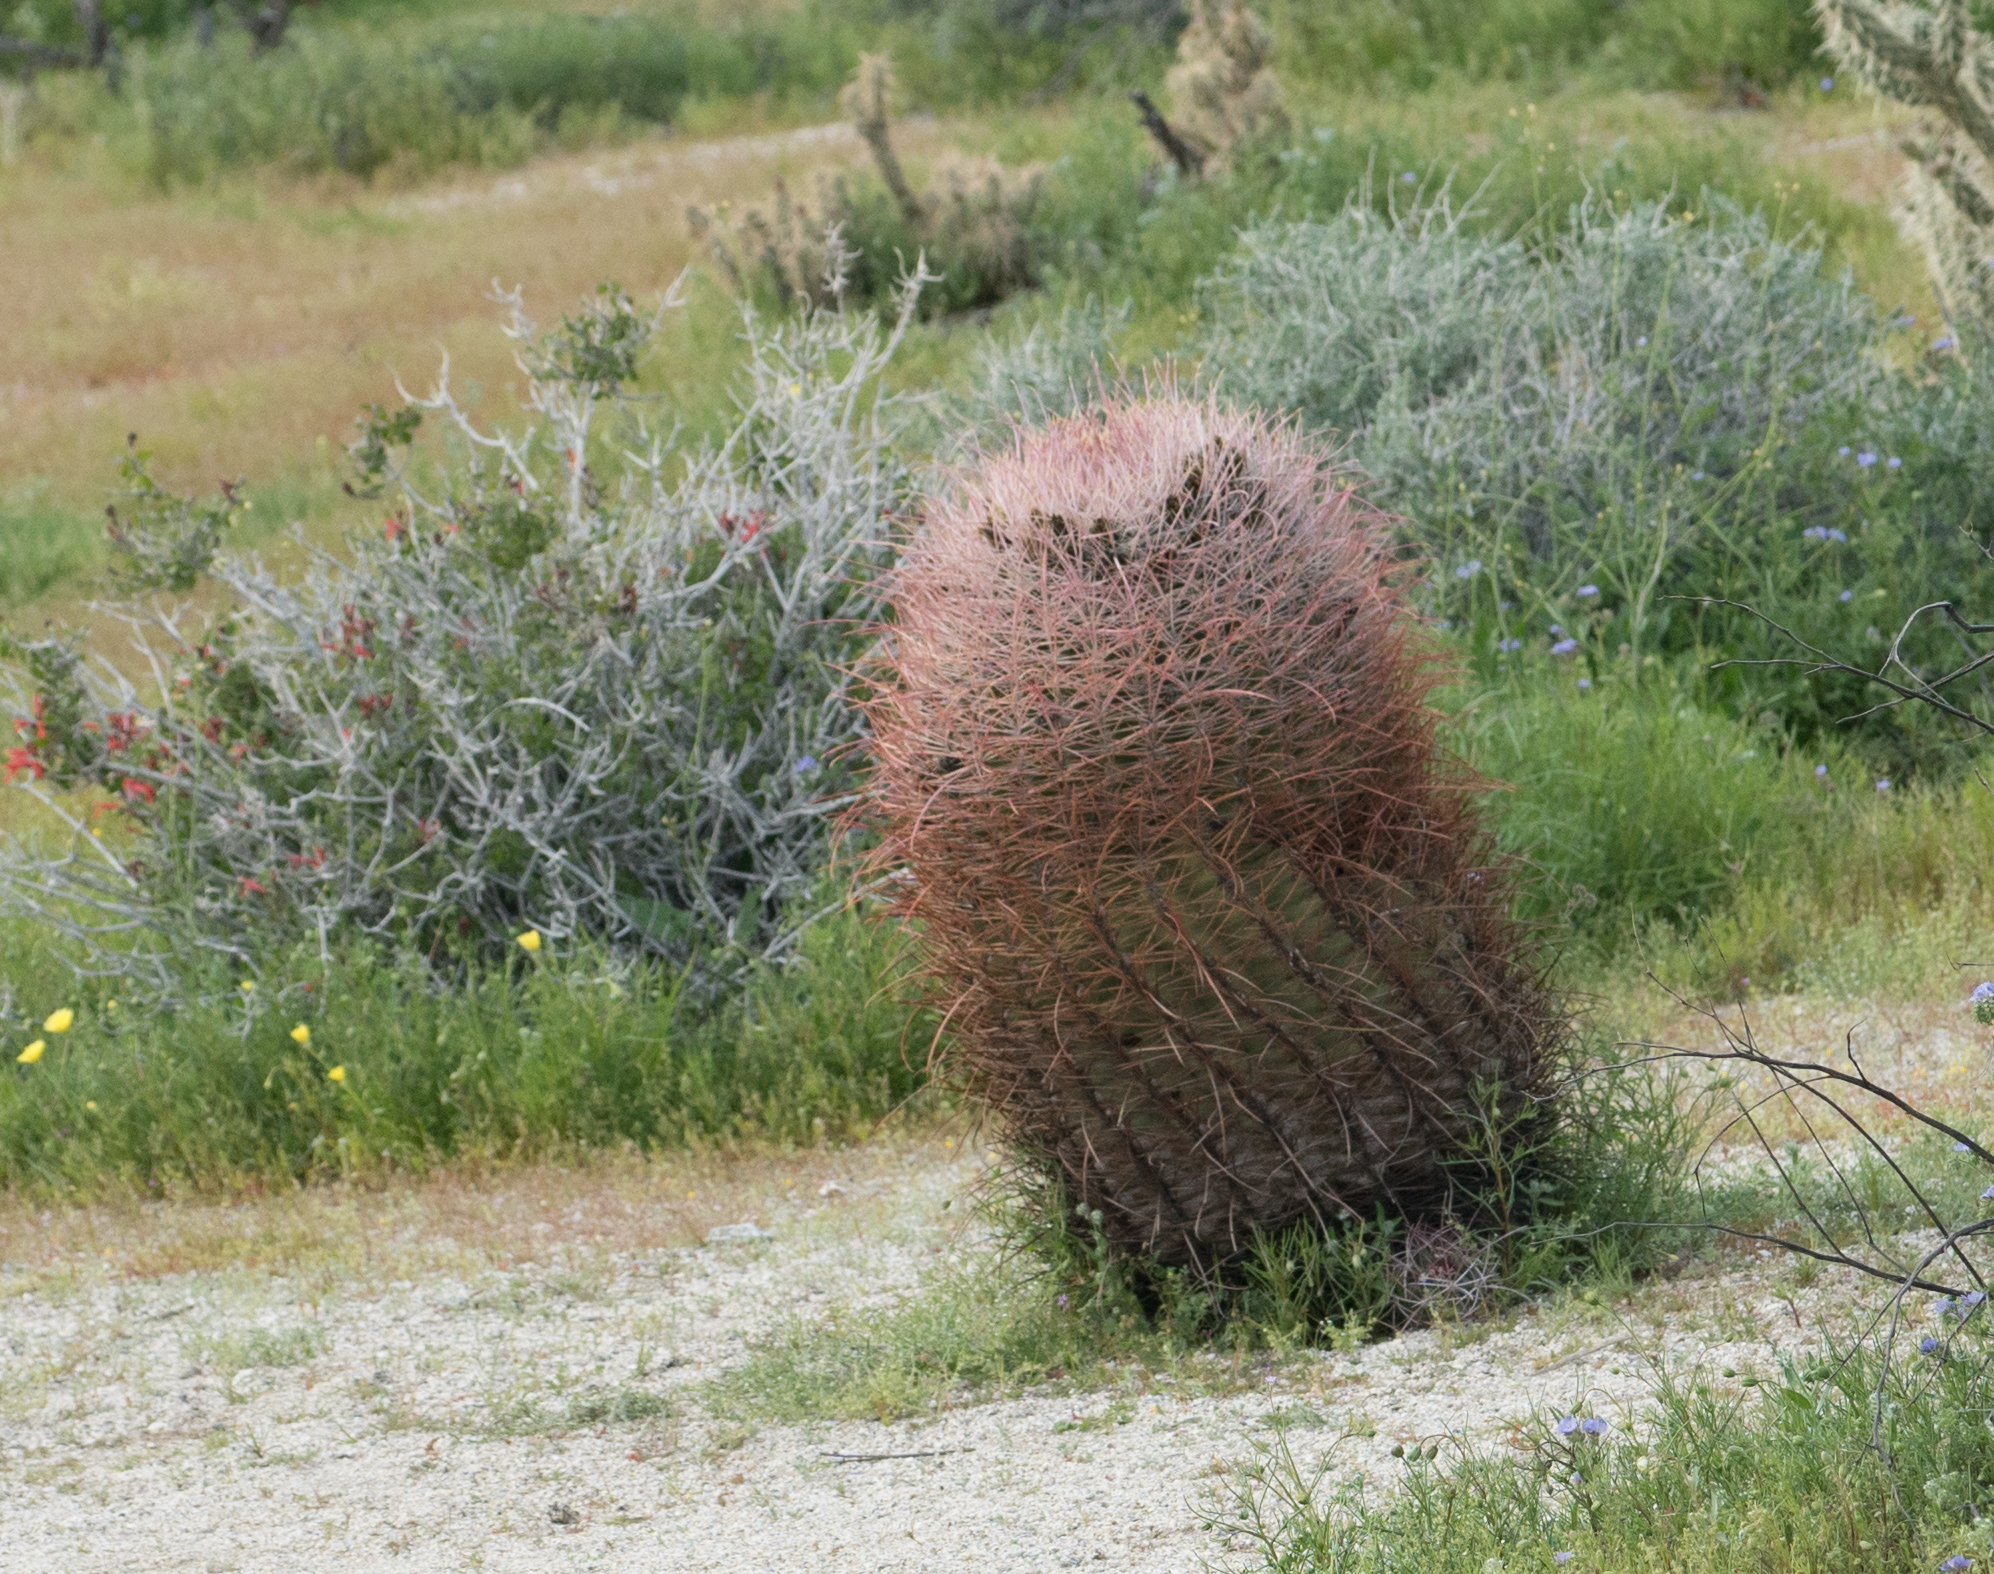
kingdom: Plantae
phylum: Tracheophyta
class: Magnoliopsida
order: Caryophyllales
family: Cactaceae
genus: Ferocactus
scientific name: Ferocactus cylindraceus
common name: California barrel cactus
